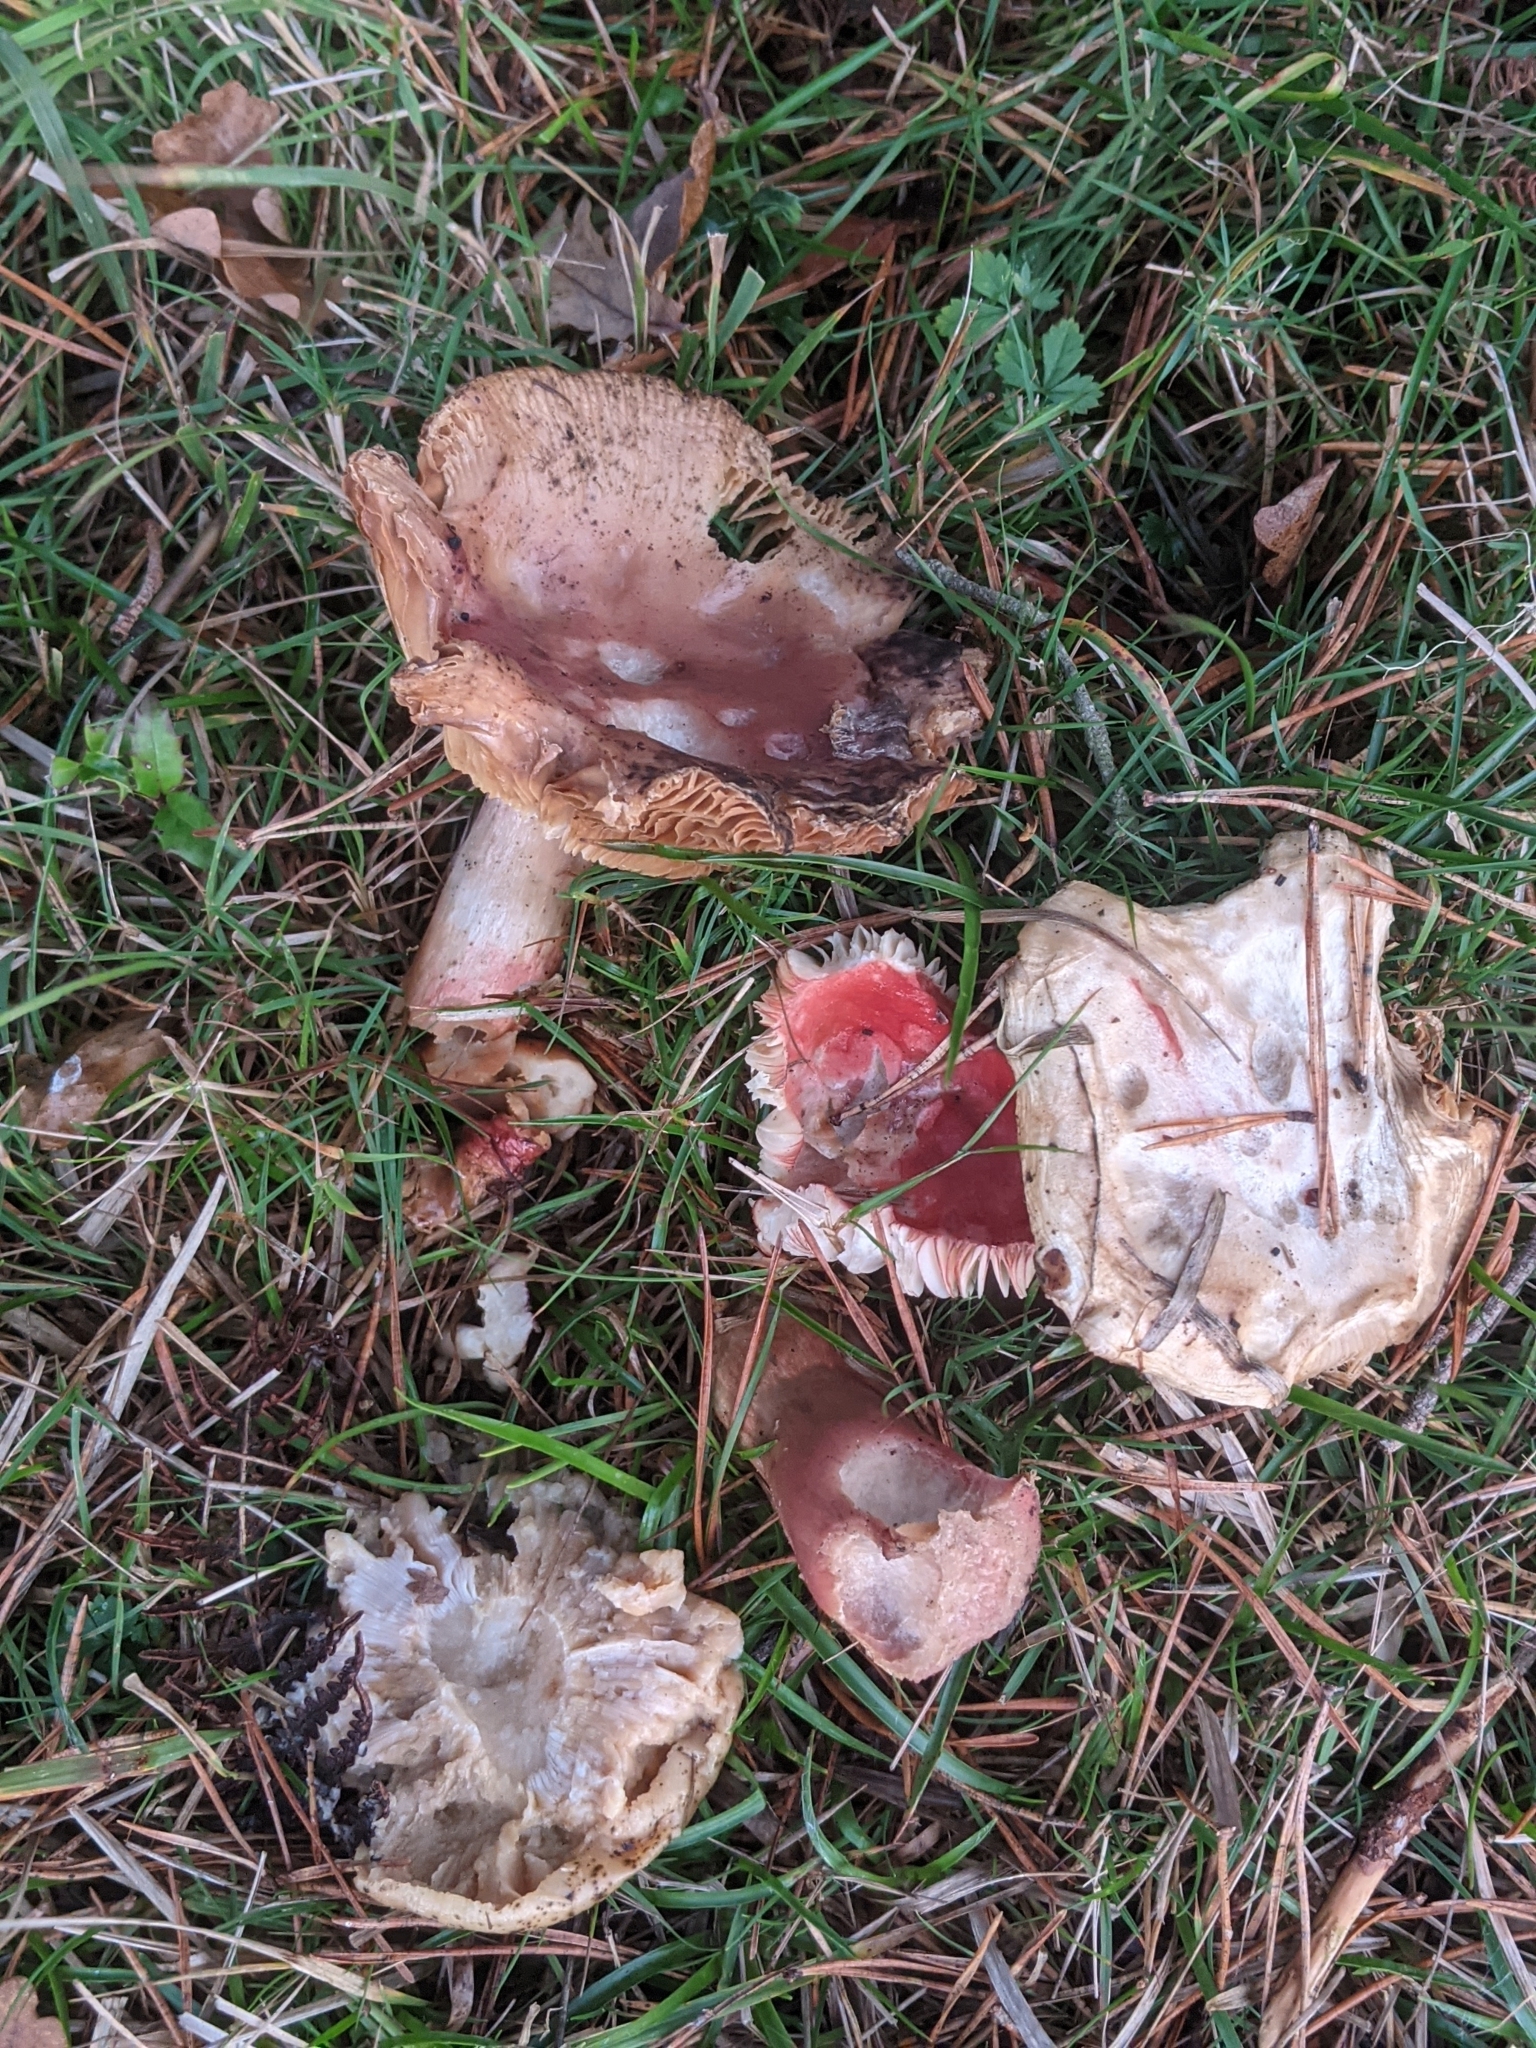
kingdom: Fungi
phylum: Basidiomycota
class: Agaricomycetes
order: Russulales
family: Russulaceae
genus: Russula
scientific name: Russula sanguinea
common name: Bloody brittlegill
